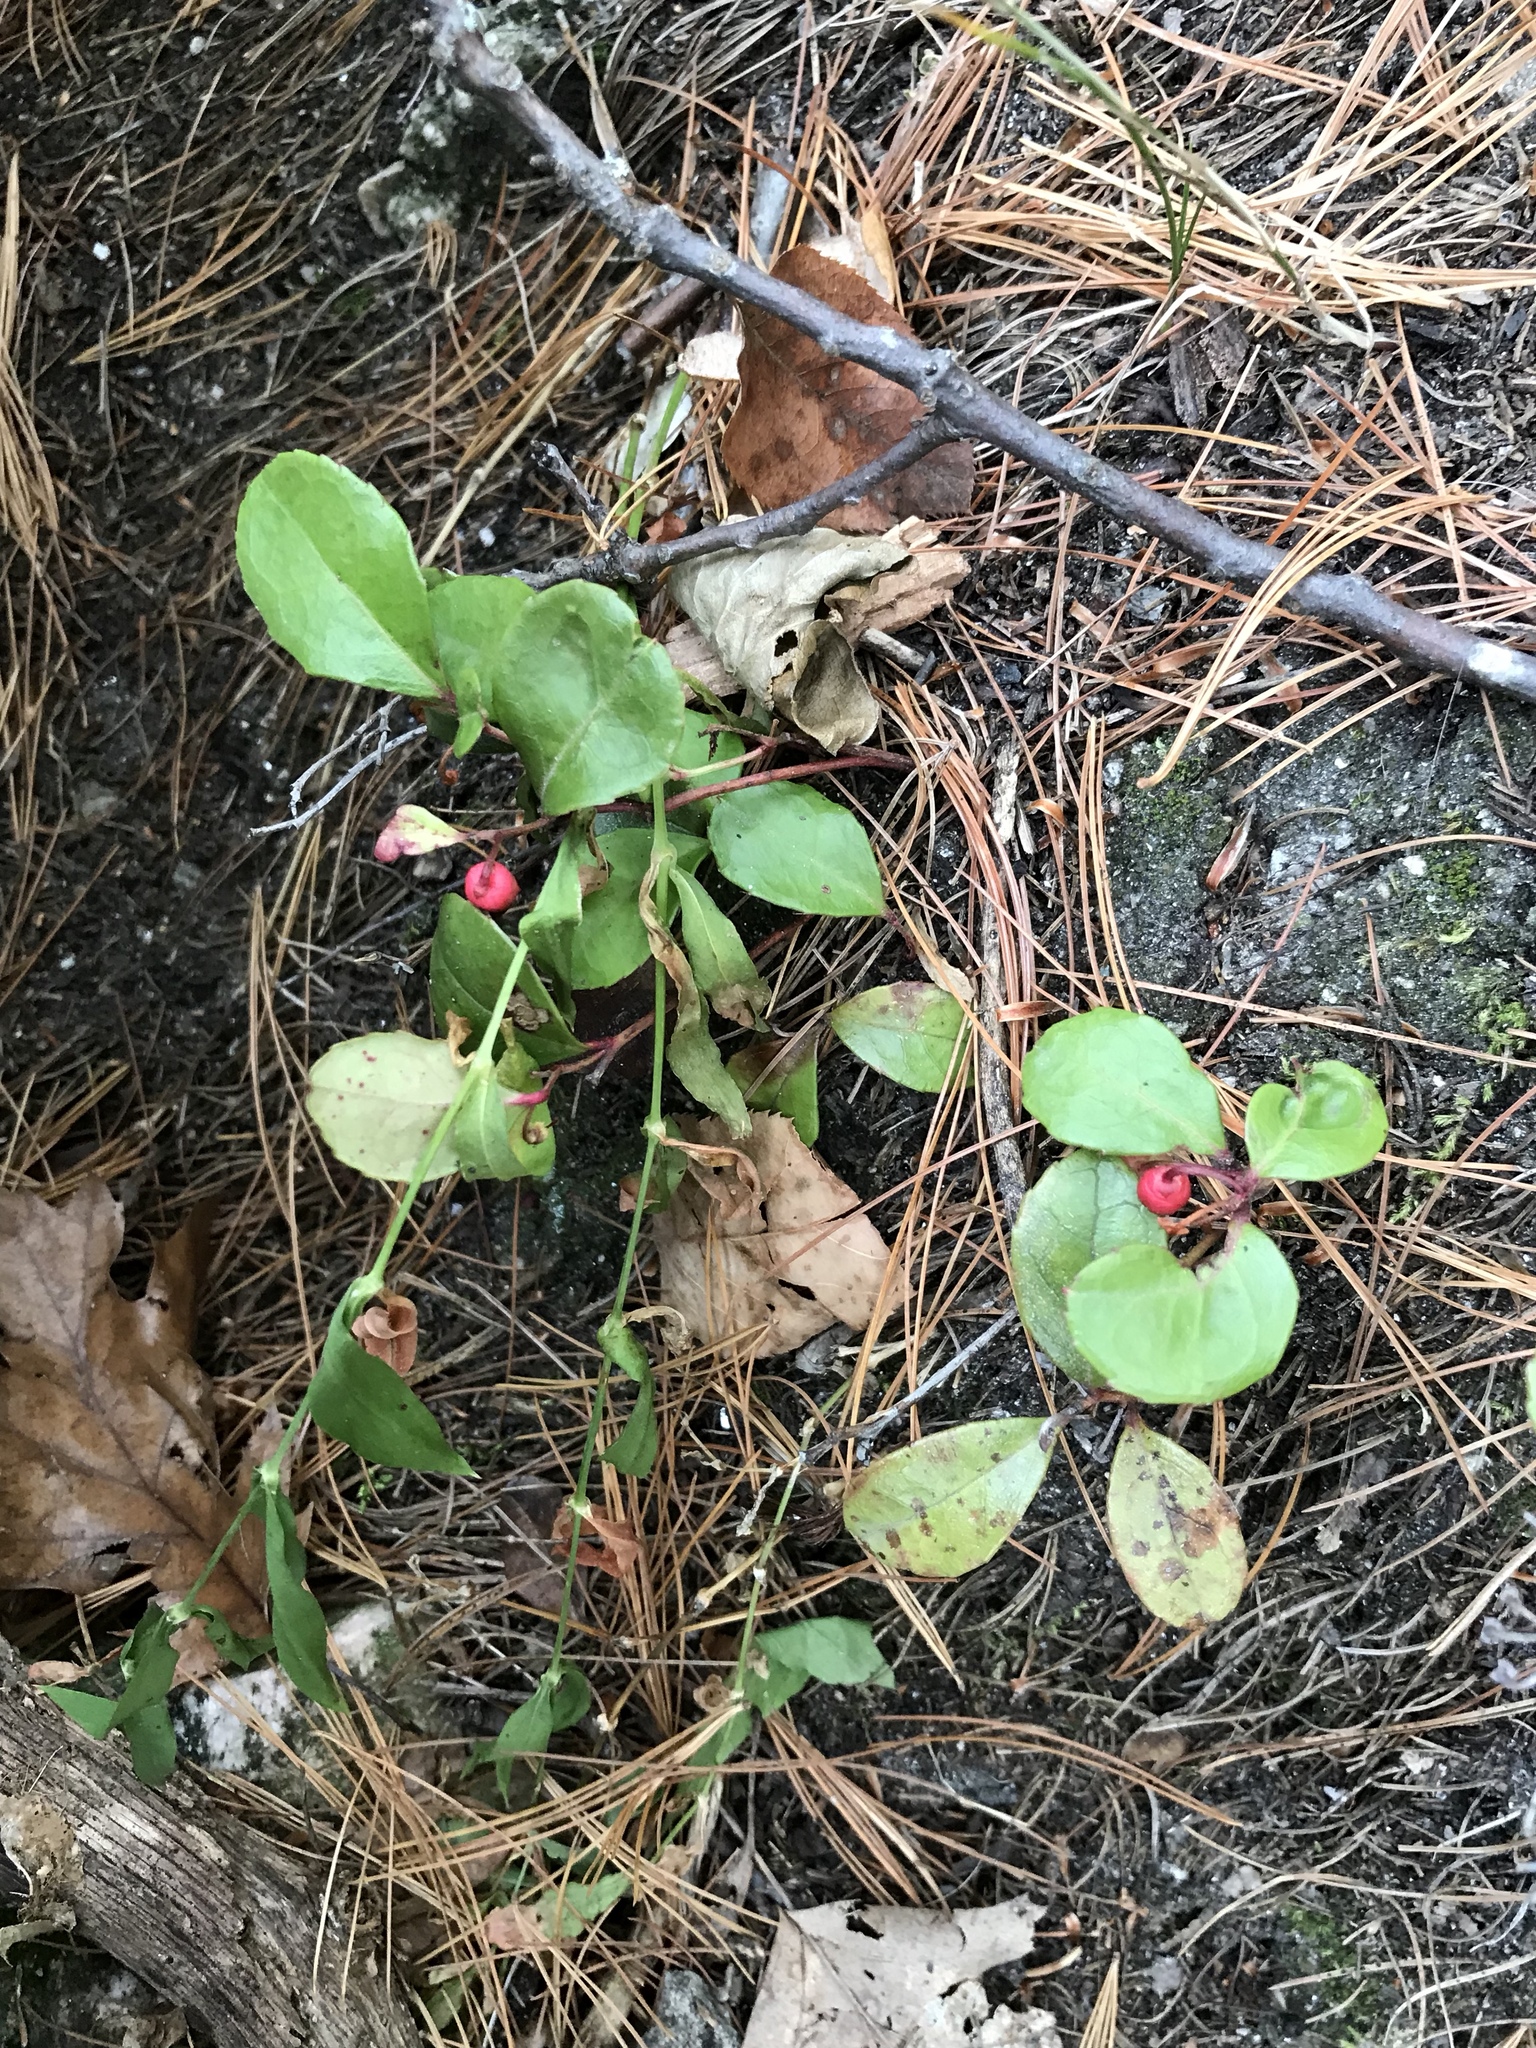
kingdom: Plantae
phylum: Tracheophyta
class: Magnoliopsida
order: Ericales
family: Ericaceae
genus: Gaultheria
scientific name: Gaultheria procumbens
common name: Checkerberry
